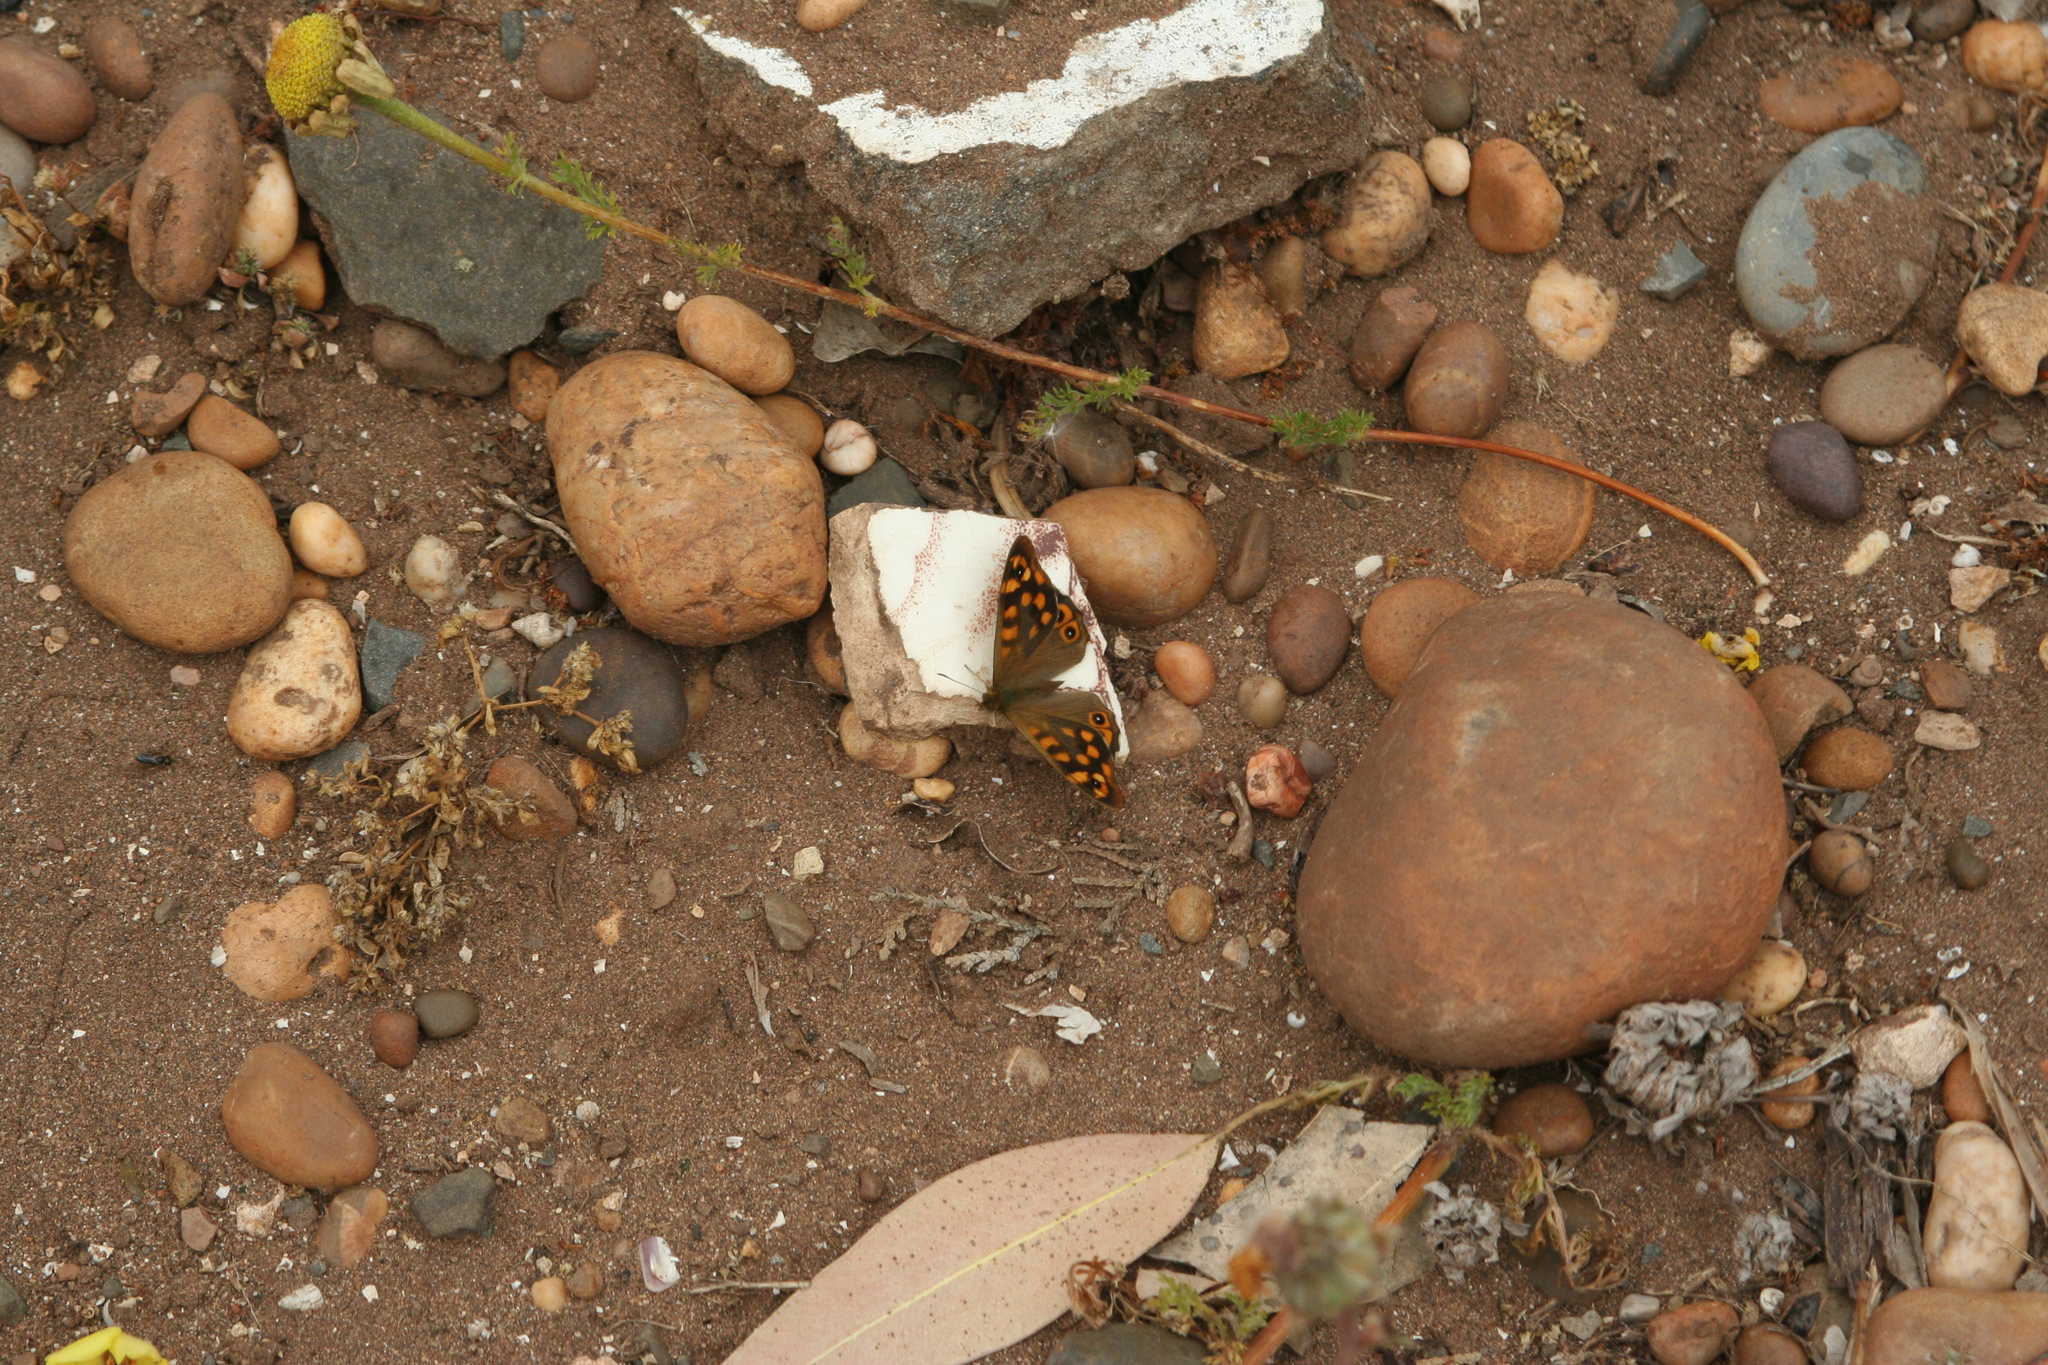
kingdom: Animalia
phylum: Arthropoda
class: Insecta
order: Lepidoptera
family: Nymphalidae
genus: Pararge
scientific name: Pararge aegeria
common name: Speckled wood
